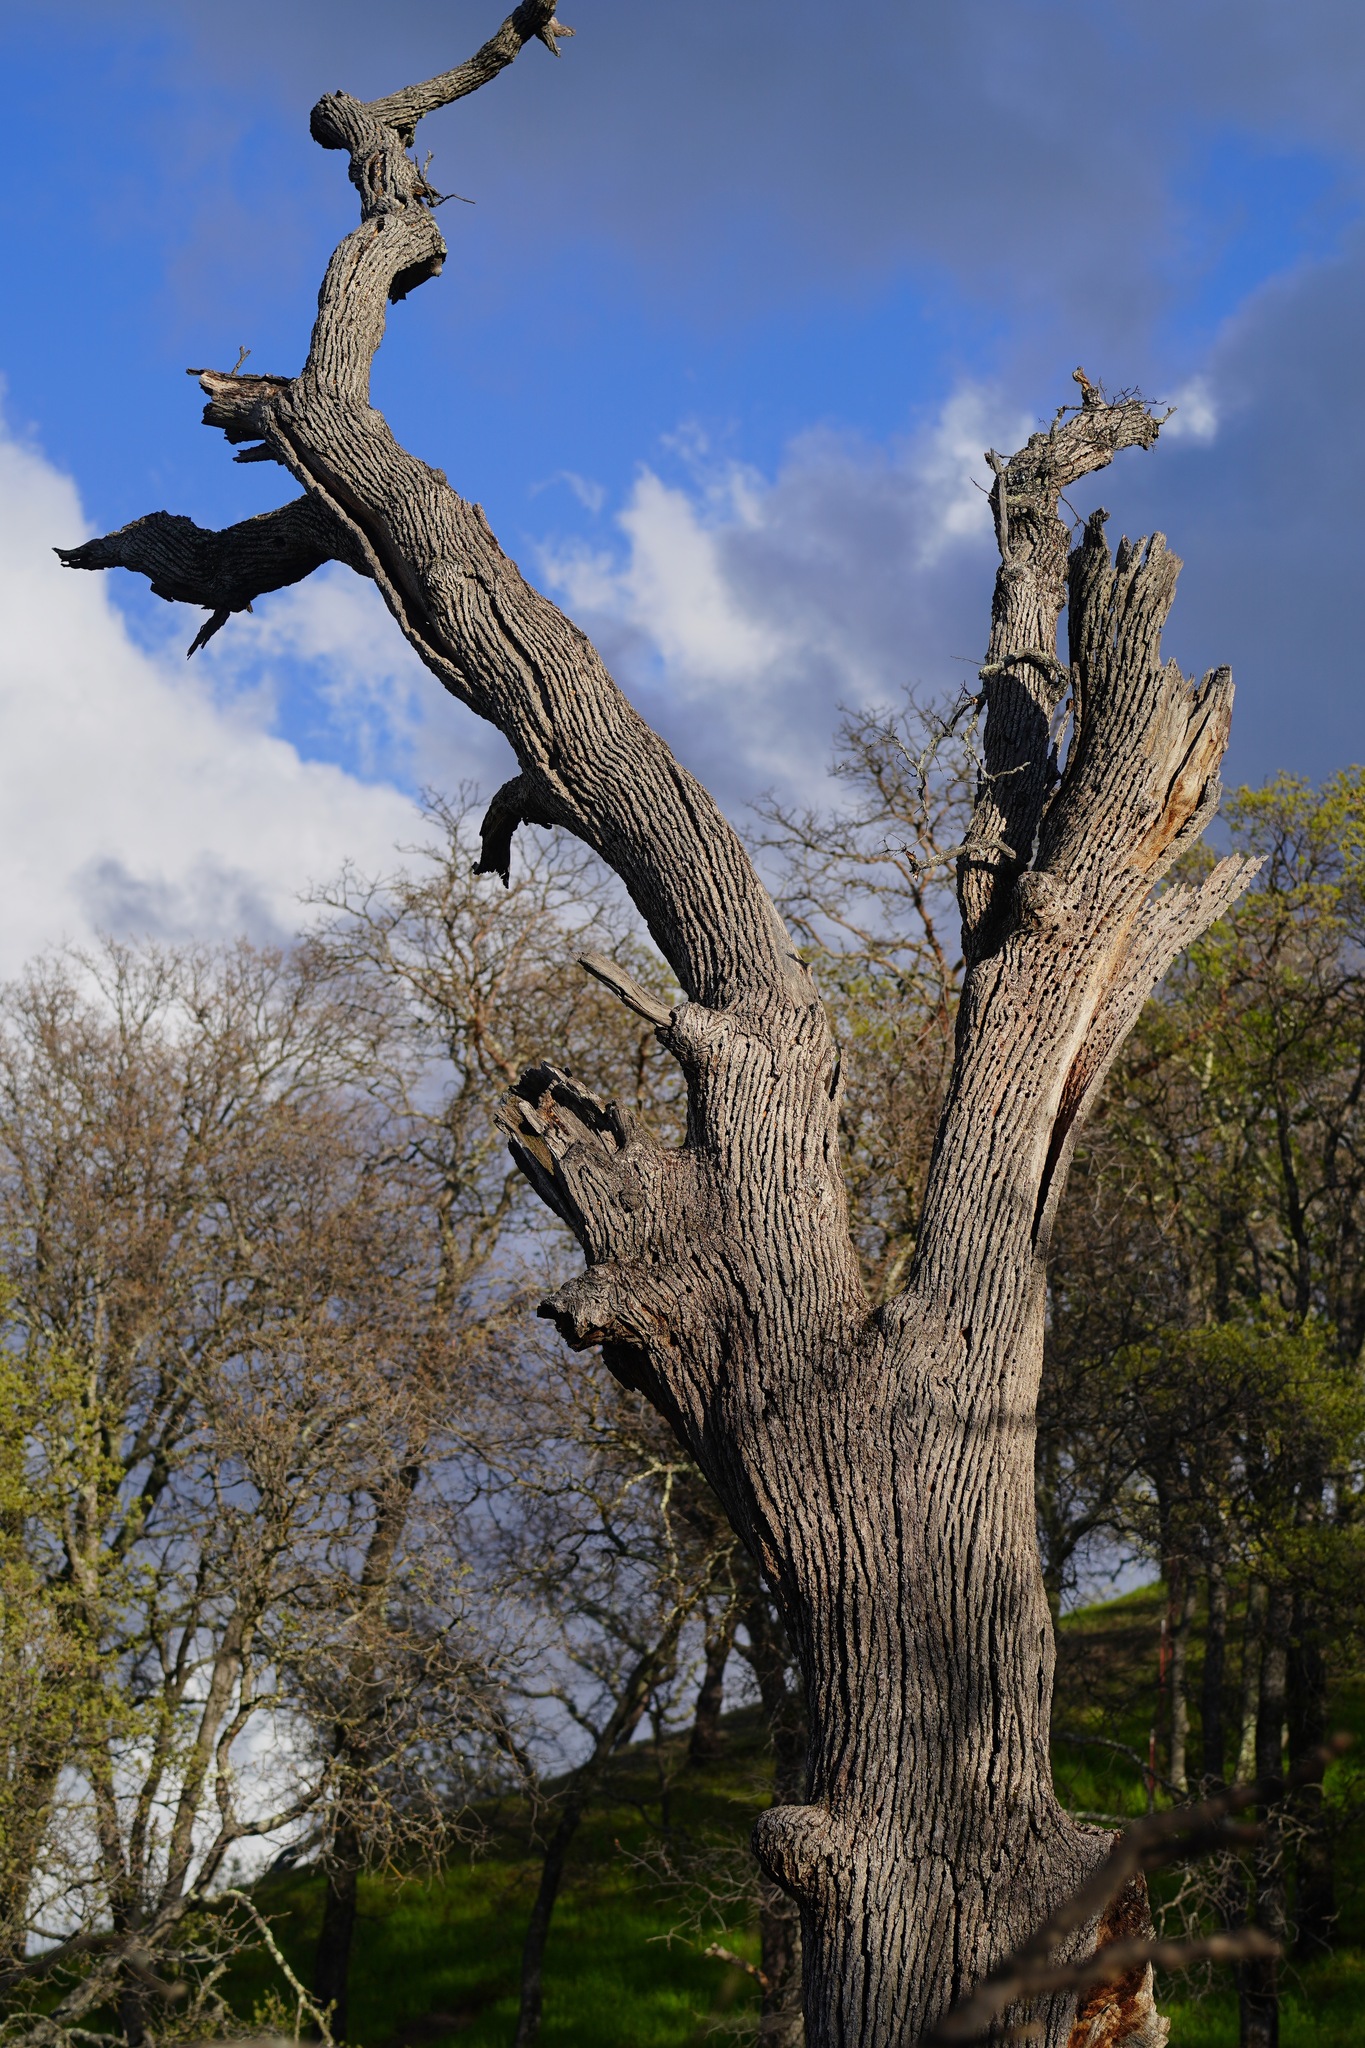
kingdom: Animalia
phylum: Chordata
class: Aves
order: Piciformes
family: Picidae
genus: Melanerpes
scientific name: Melanerpes formicivorus
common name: Acorn woodpecker
